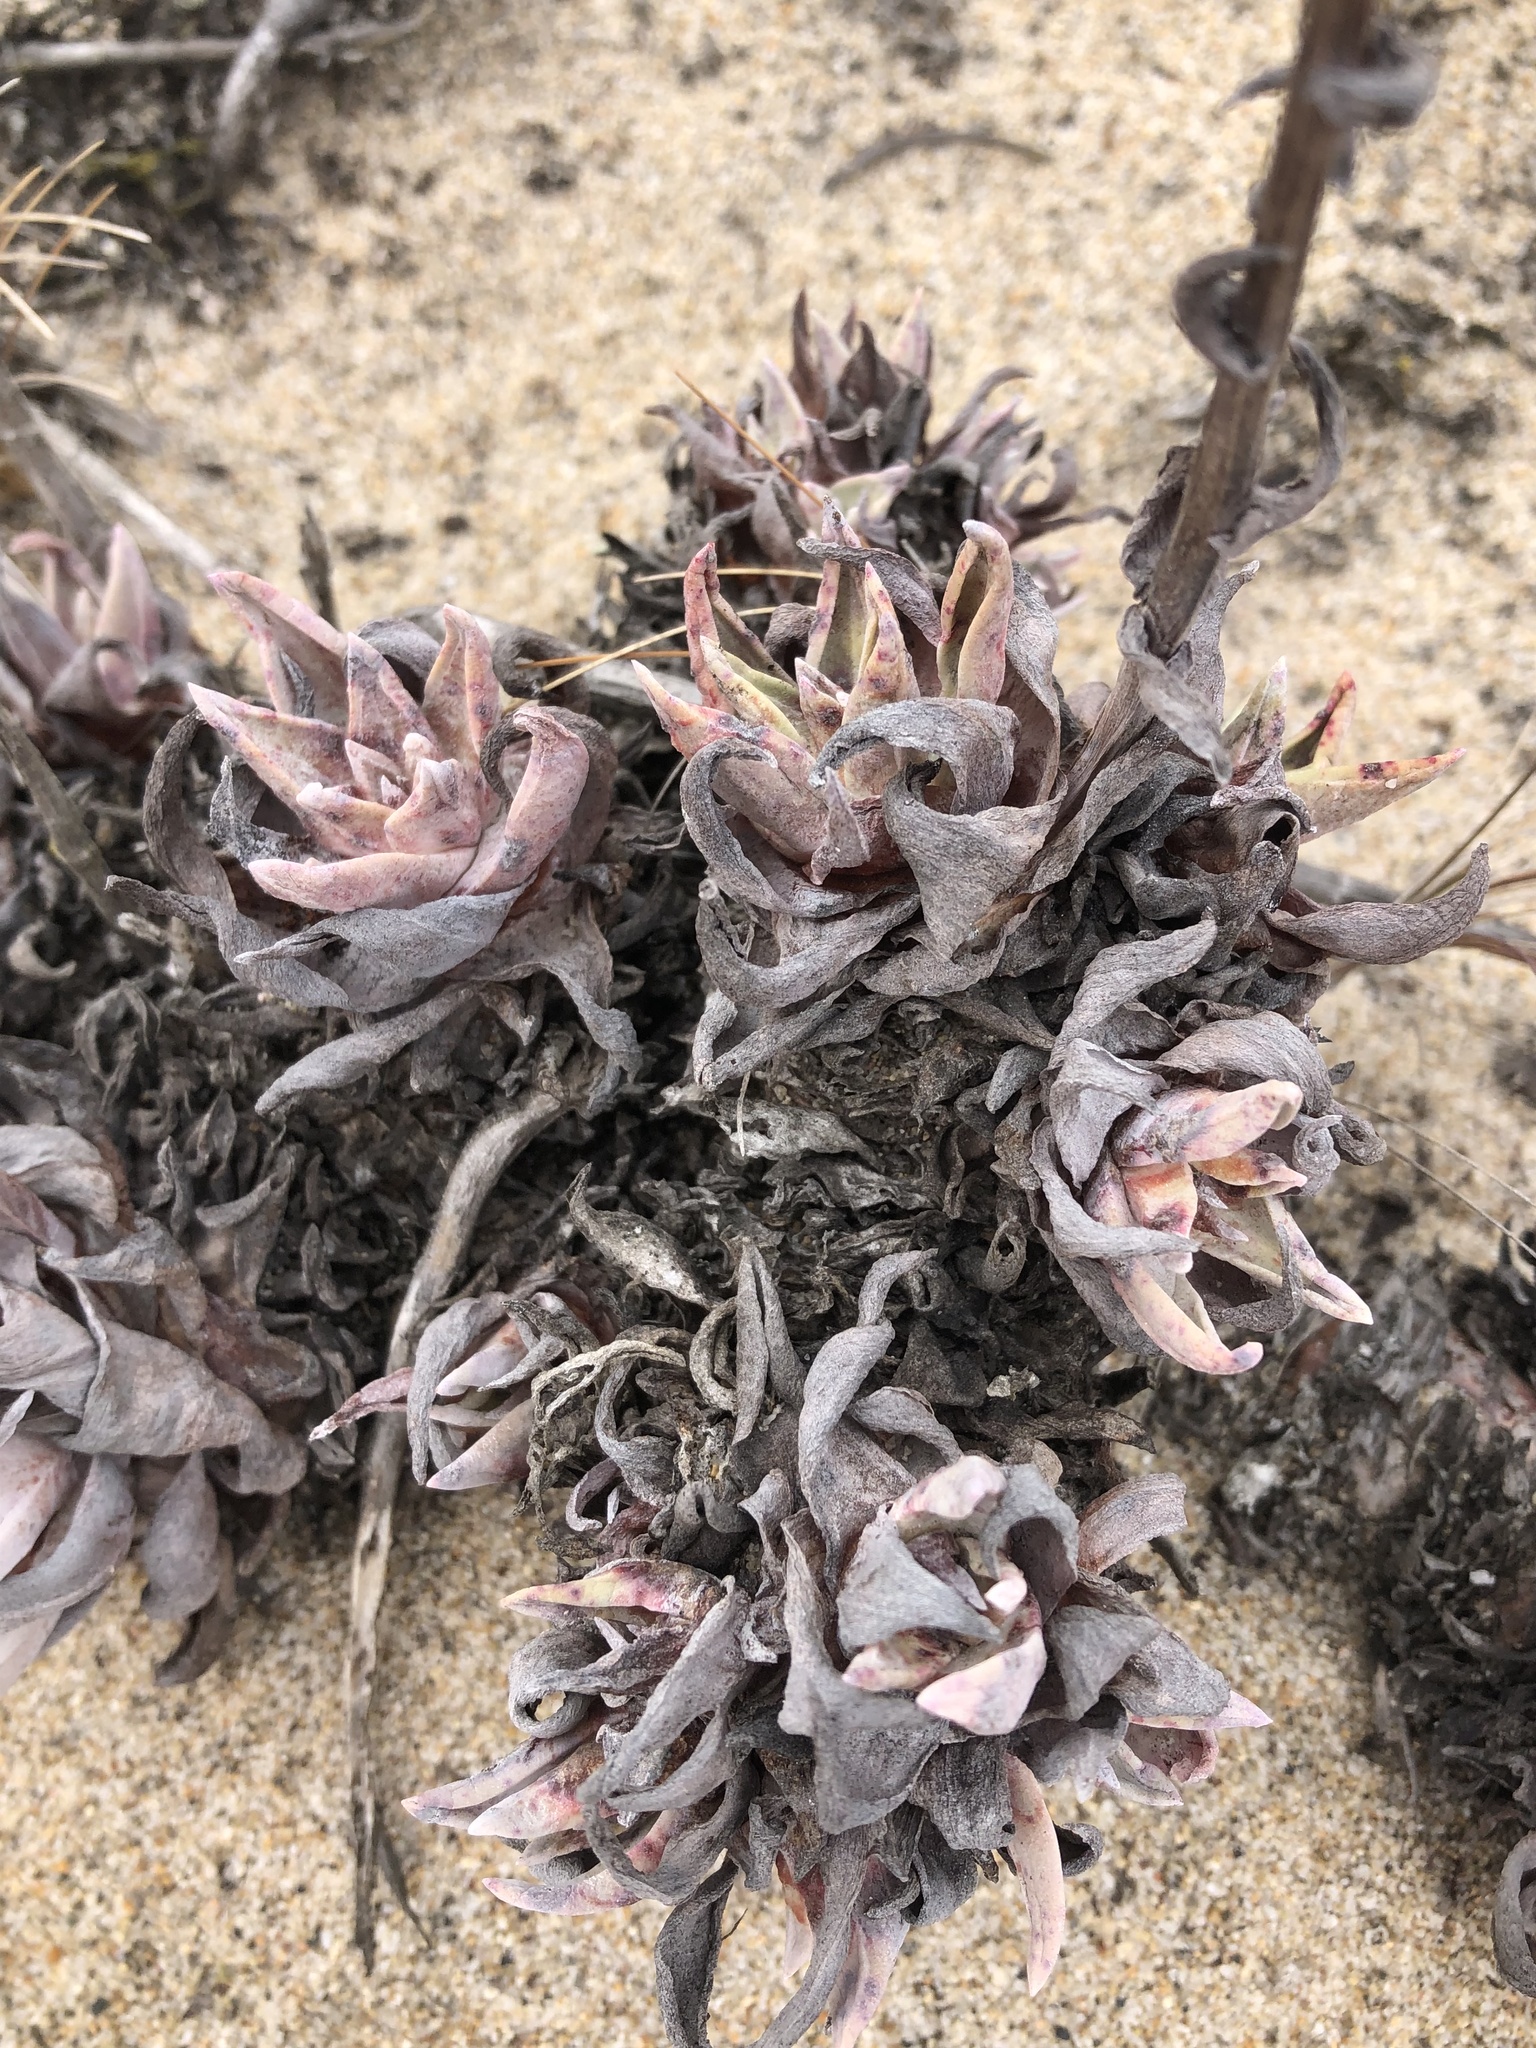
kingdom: Plantae
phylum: Tracheophyta
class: Magnoliopsida
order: Saxifragales
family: Crassulaceae
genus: Dudleya
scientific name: Dudleya caespitosa
